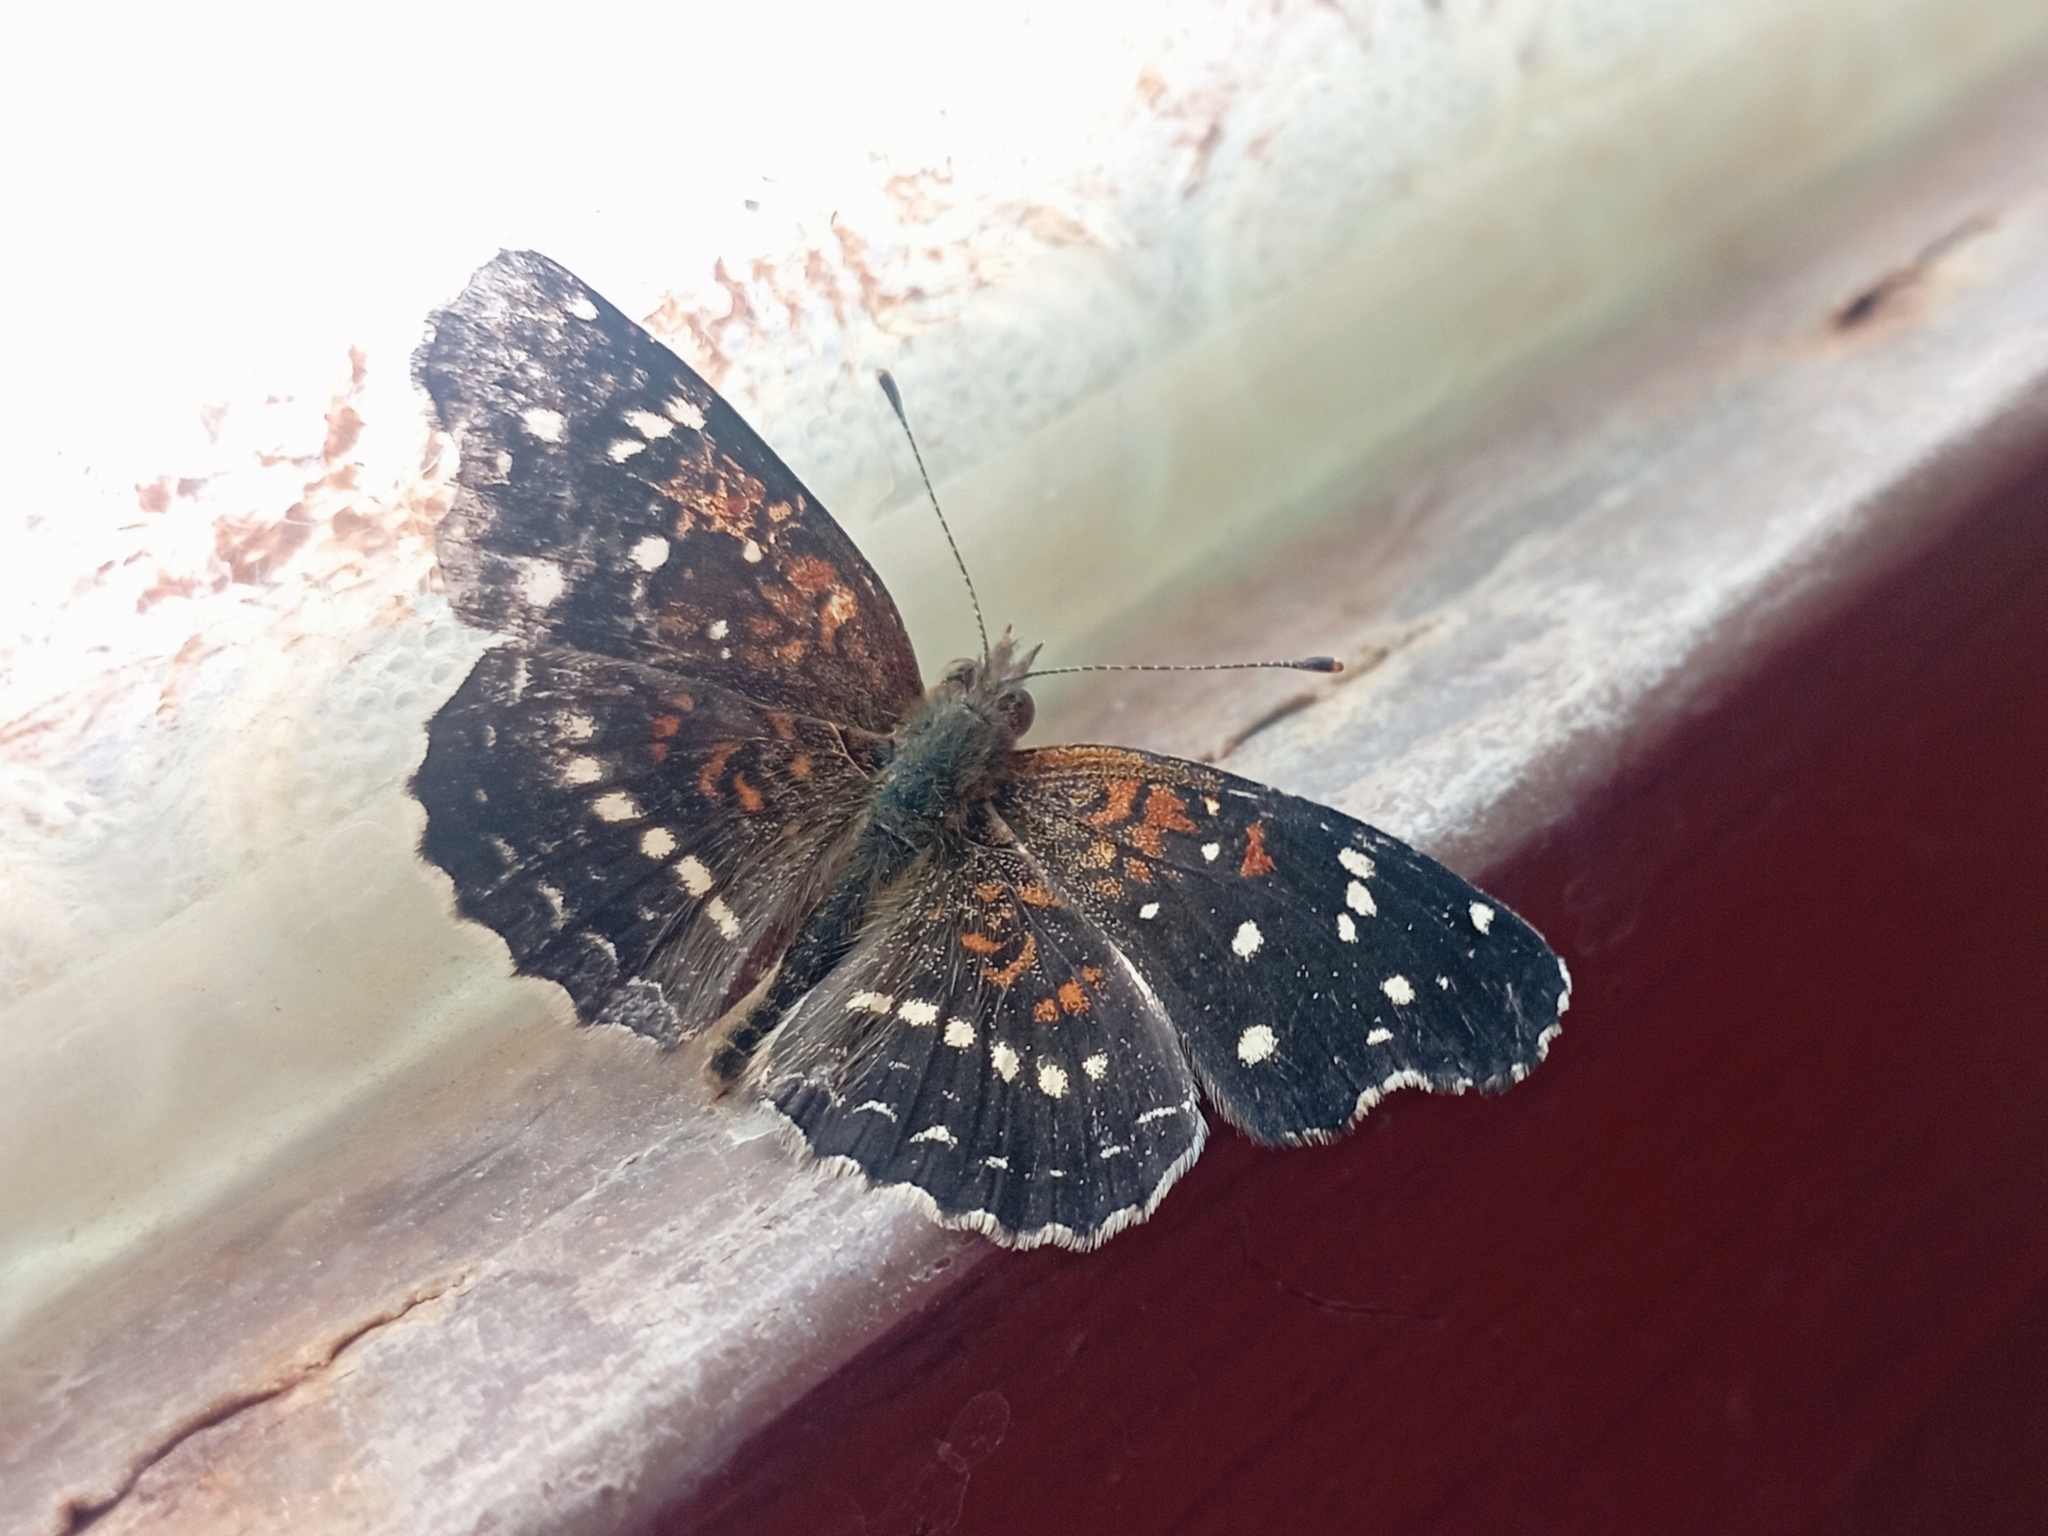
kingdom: Animalia
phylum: Arthropoda
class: Insecta
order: Lepidoptera
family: Nymphalidae
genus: Anthanassa
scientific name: Anthanassa texana
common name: Texan crescent
